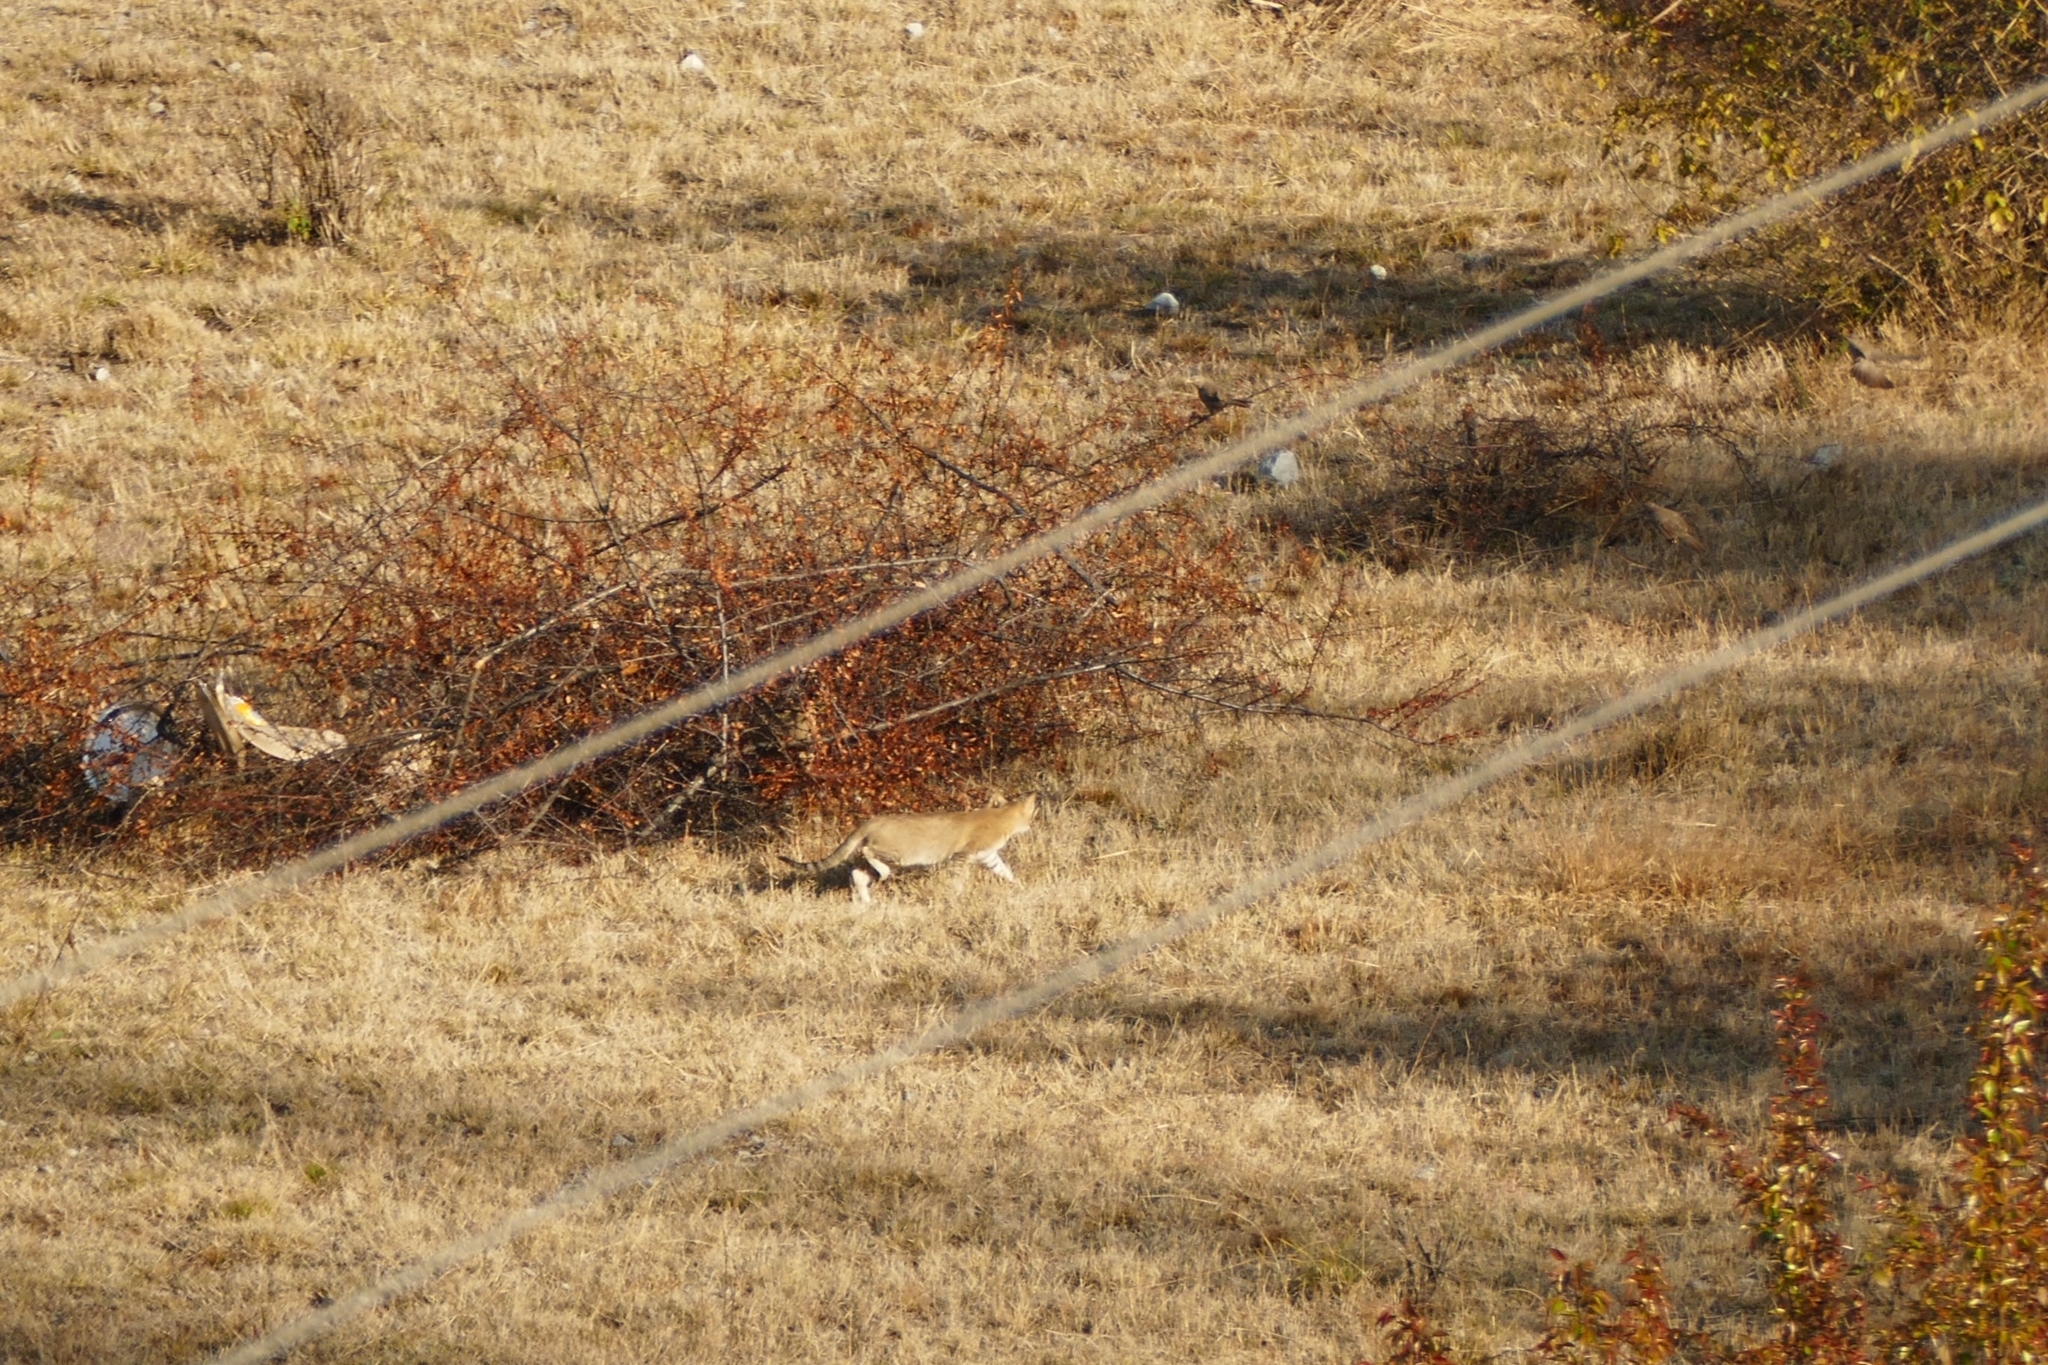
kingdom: Animalia
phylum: Chordata
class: Mammalia
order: Carnivora
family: Felidae
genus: Felis
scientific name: Felis chaus
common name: Jungle cat
